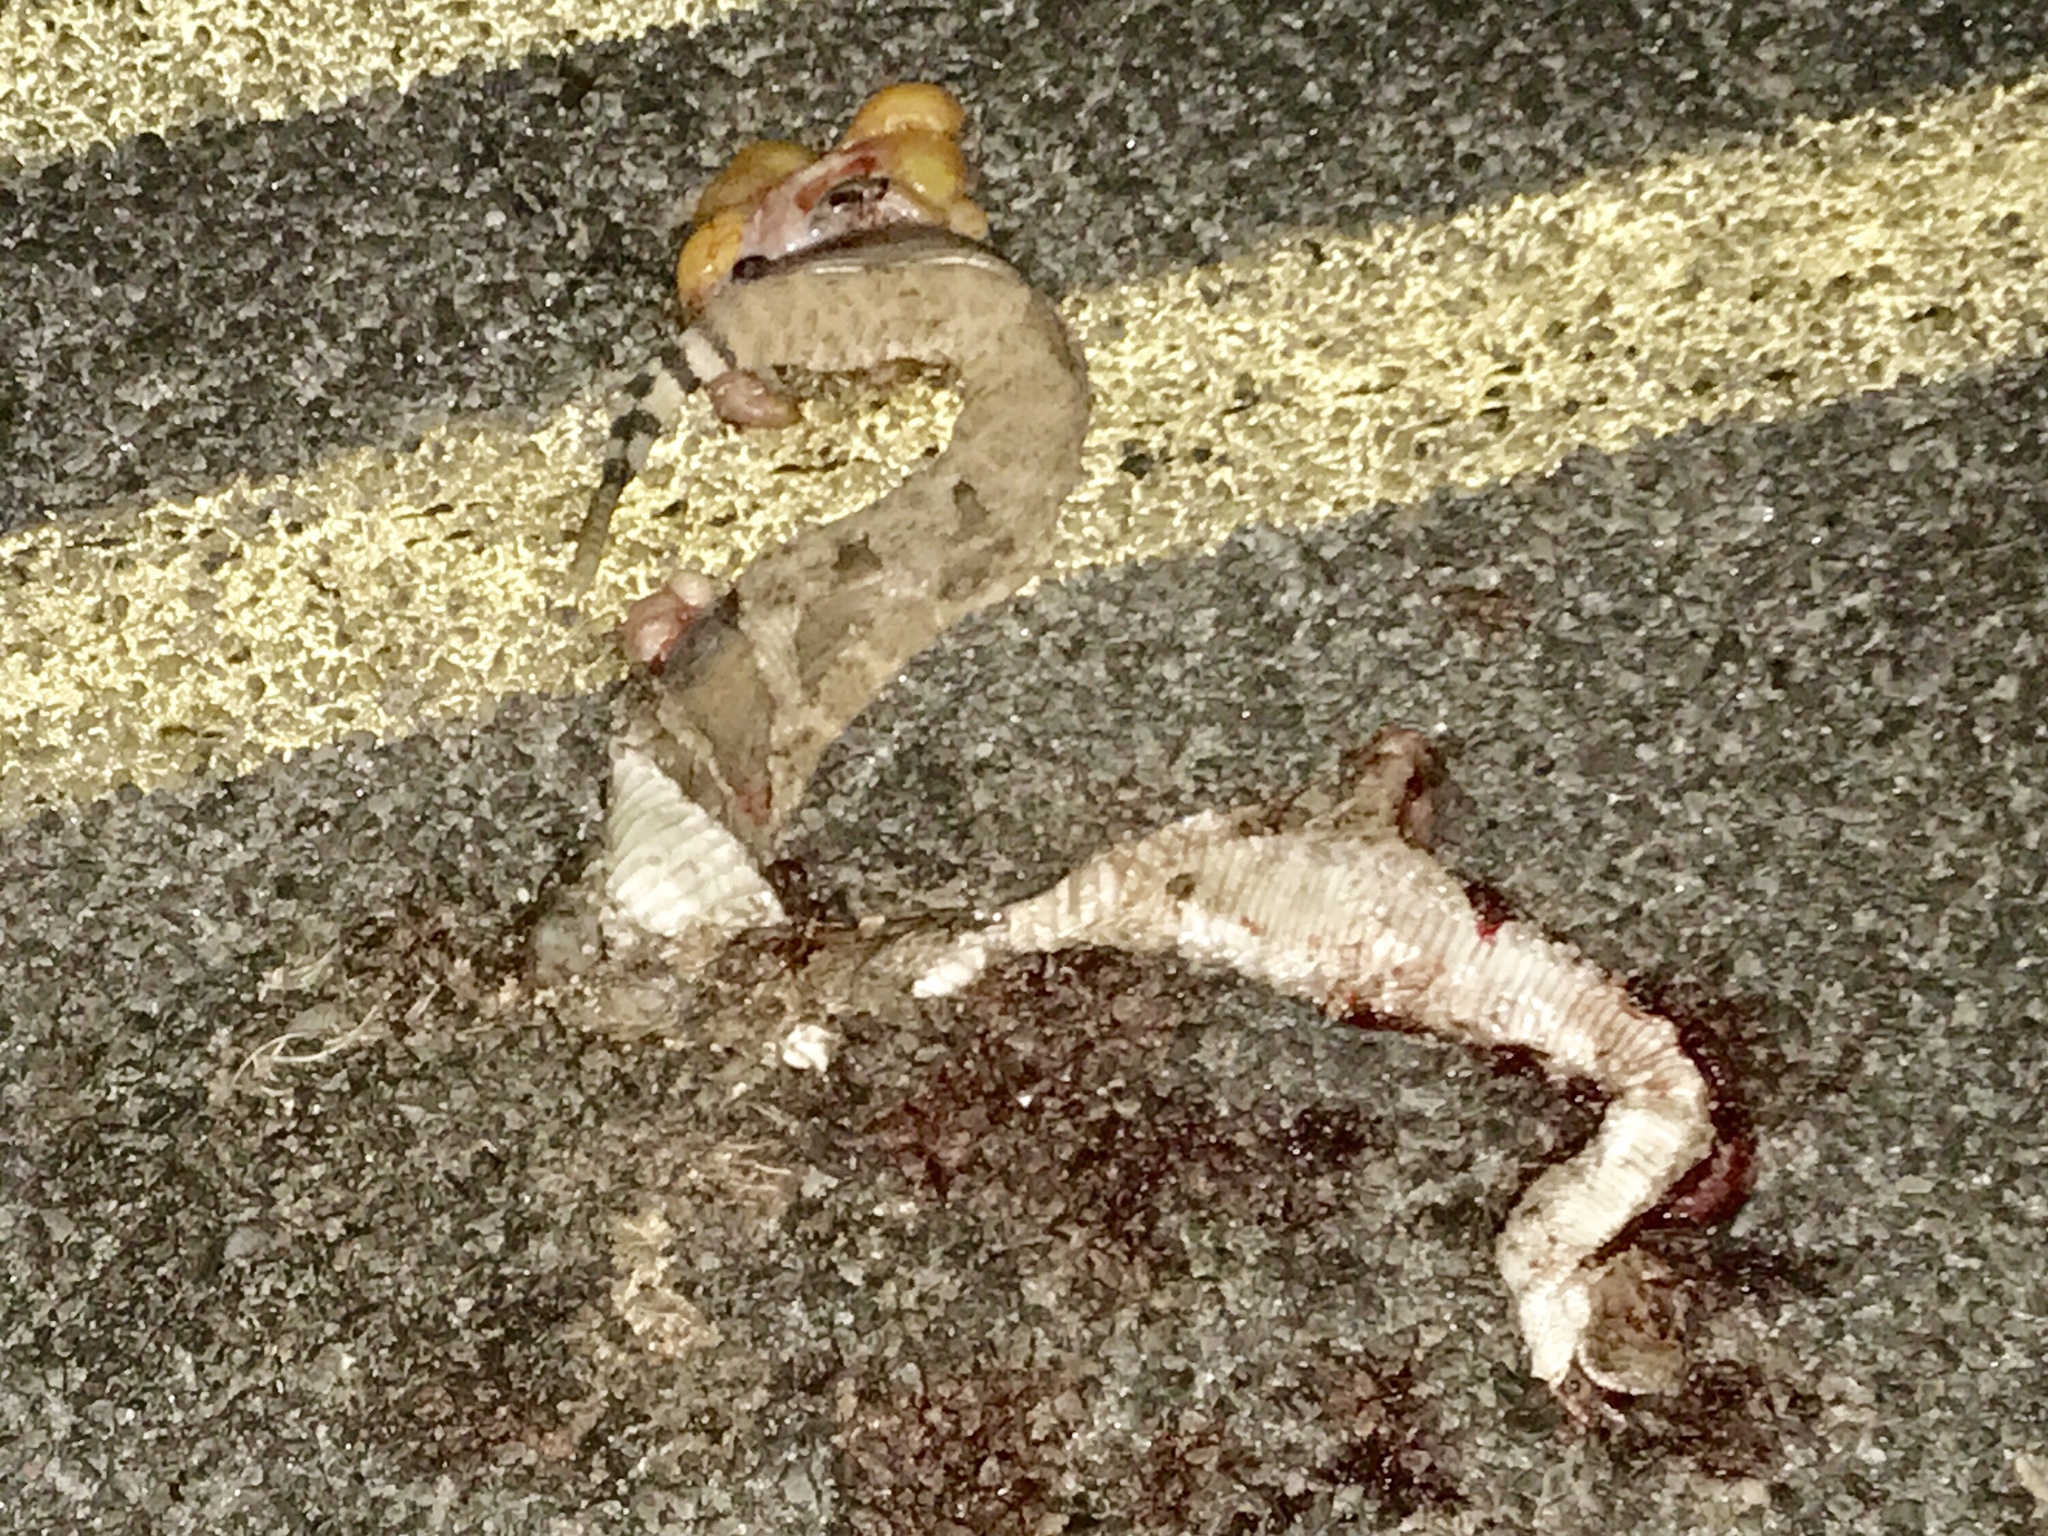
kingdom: Animalia
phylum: Chordata
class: Squamata
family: Viperidae
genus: Crotalus
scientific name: Crotalus atrox
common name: Western diamond-backed rattlesnake
